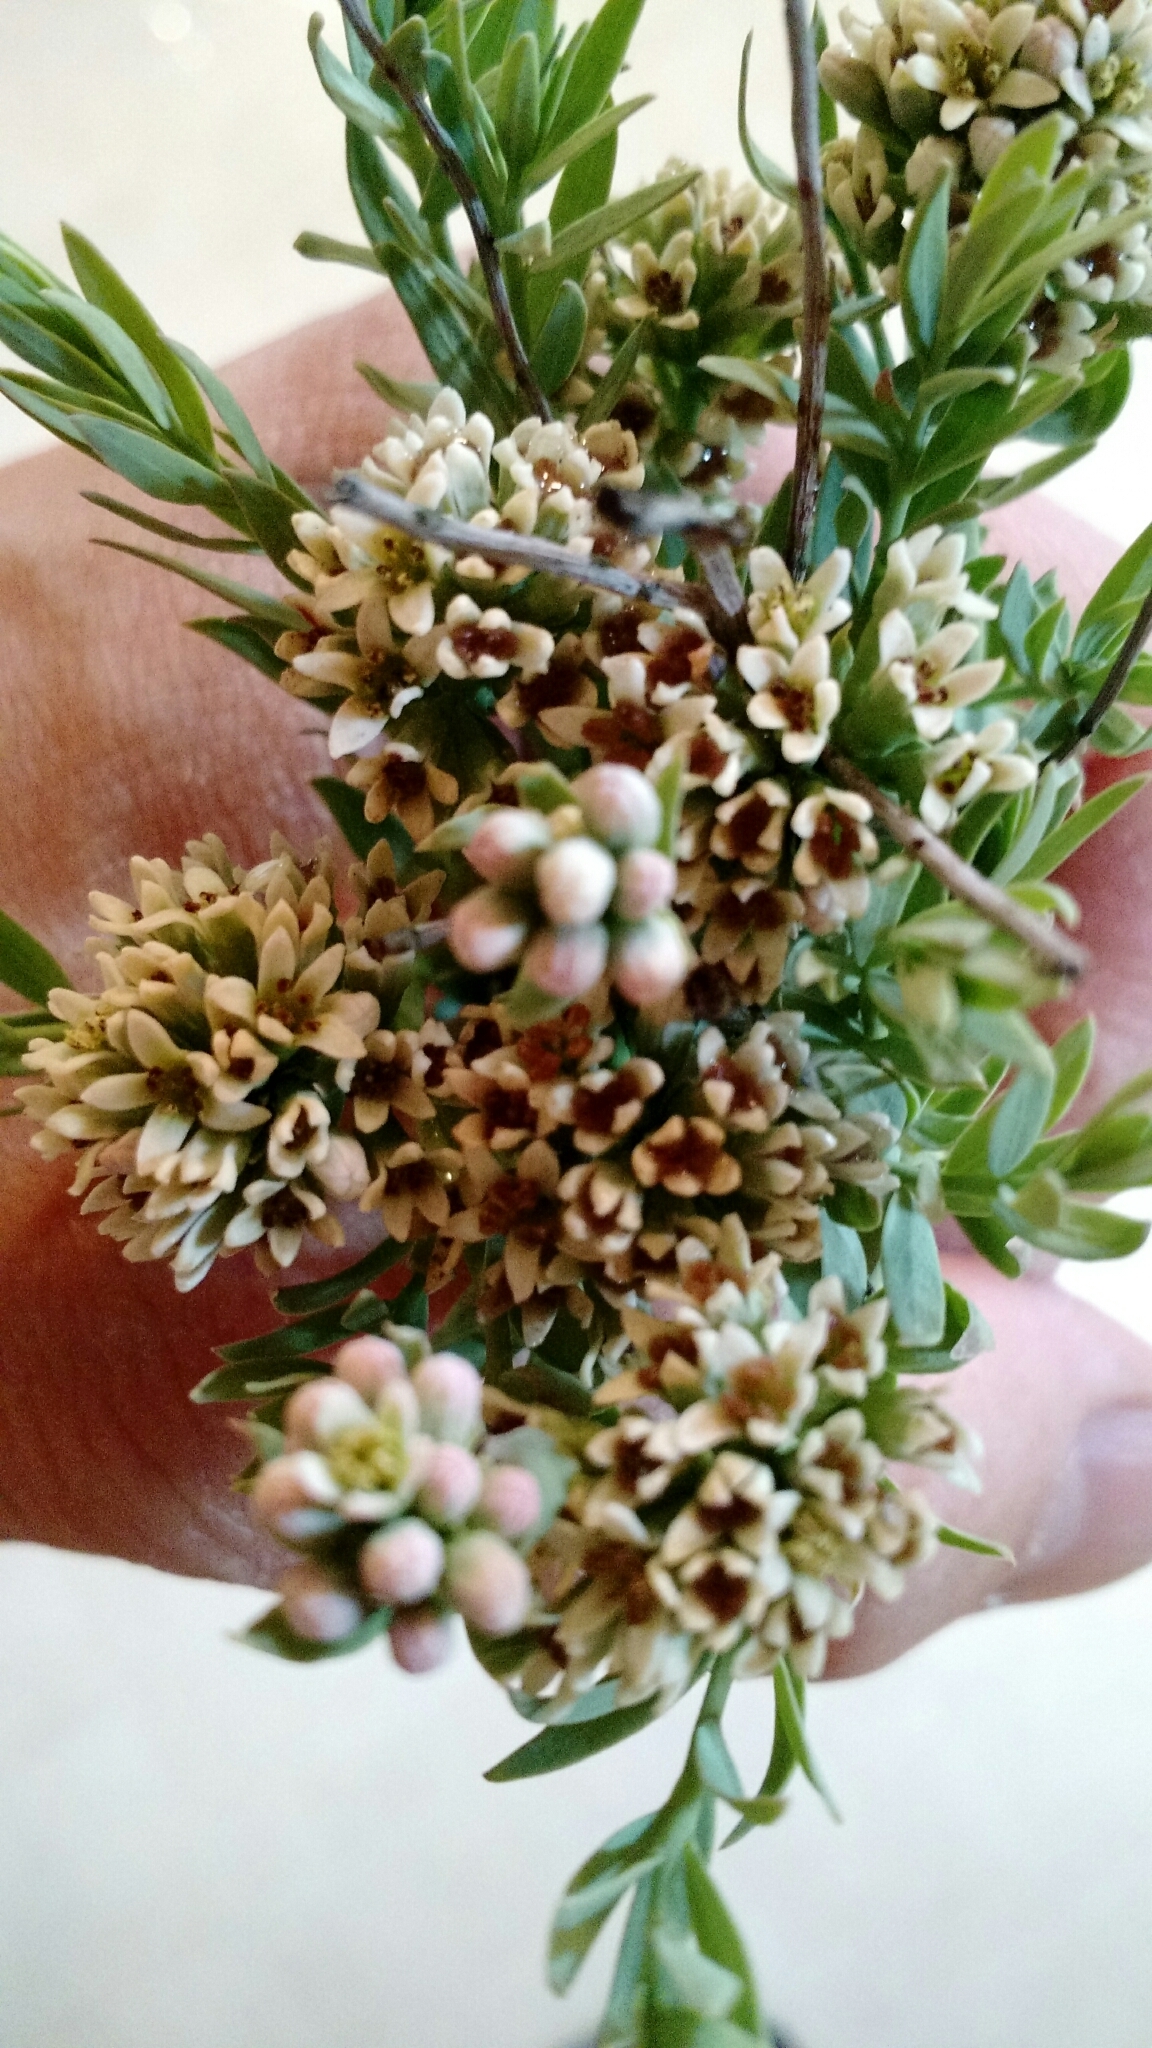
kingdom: Plantae
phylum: Tracheophyta
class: Magnoliopsida
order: Santalales
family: Comandraceae
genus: Comandra
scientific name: Comandra umbellata
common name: Bastard toadflax
